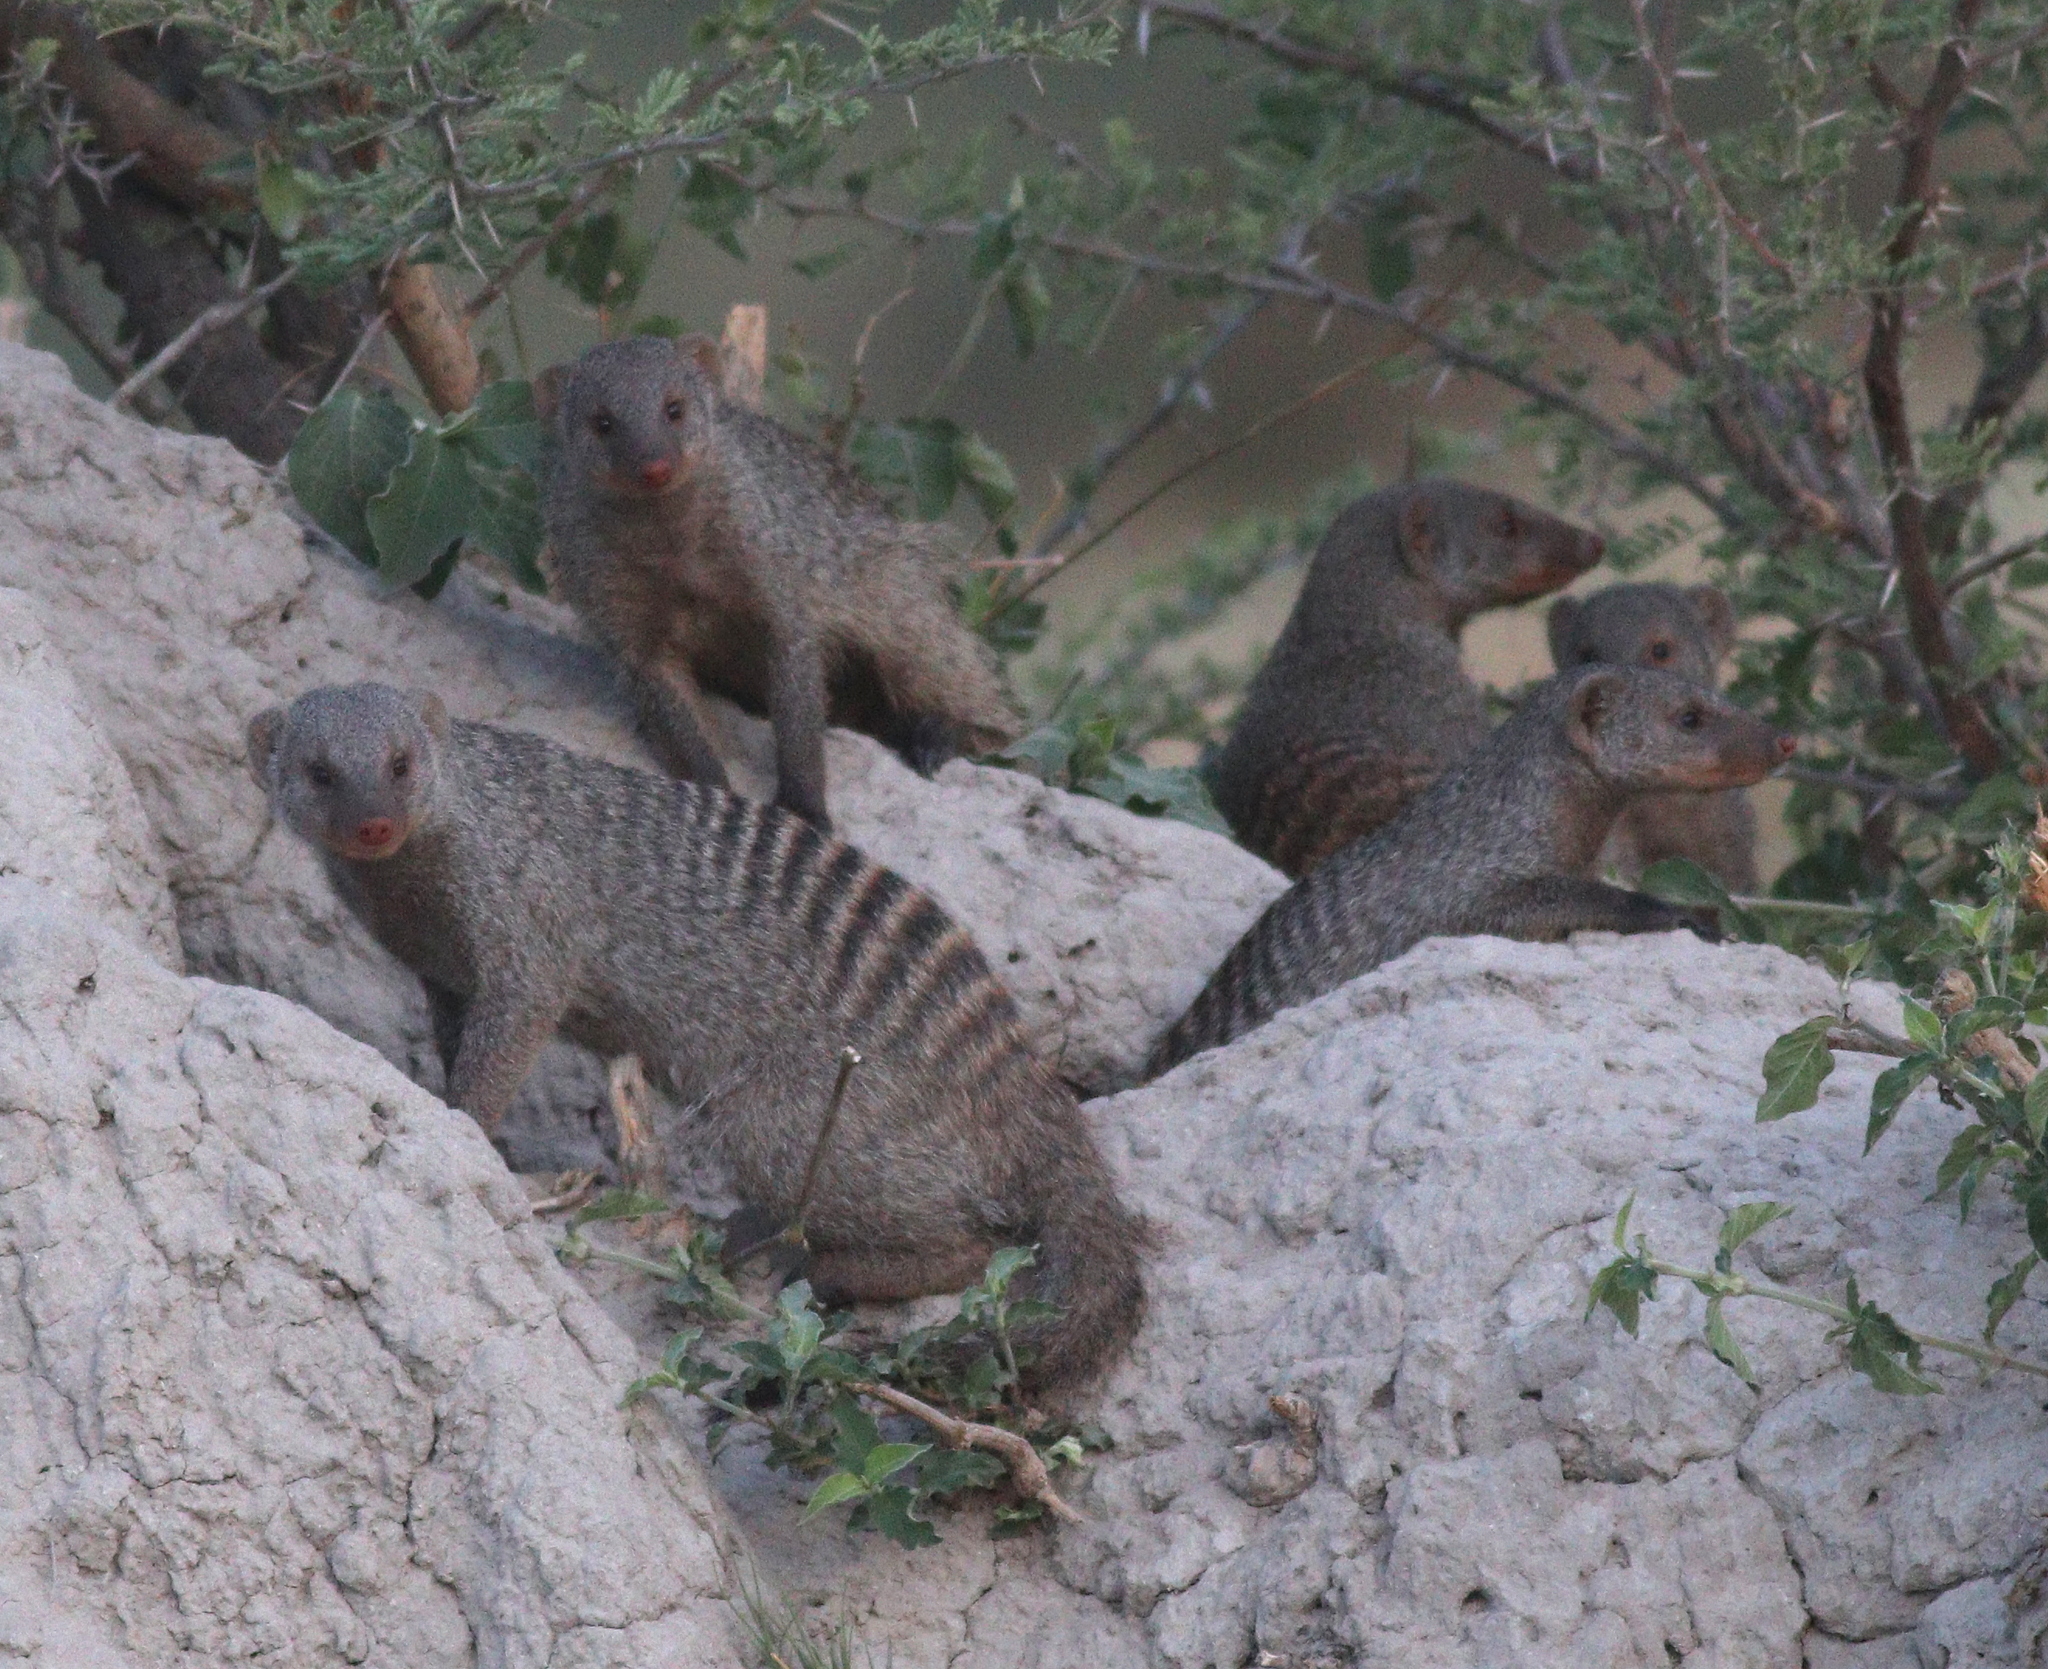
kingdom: Animalia
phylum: Chordata
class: Mammalia
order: Carnivora
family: Herpestidae
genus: Mungos
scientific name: Mungos mungo
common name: Banded mongoose
